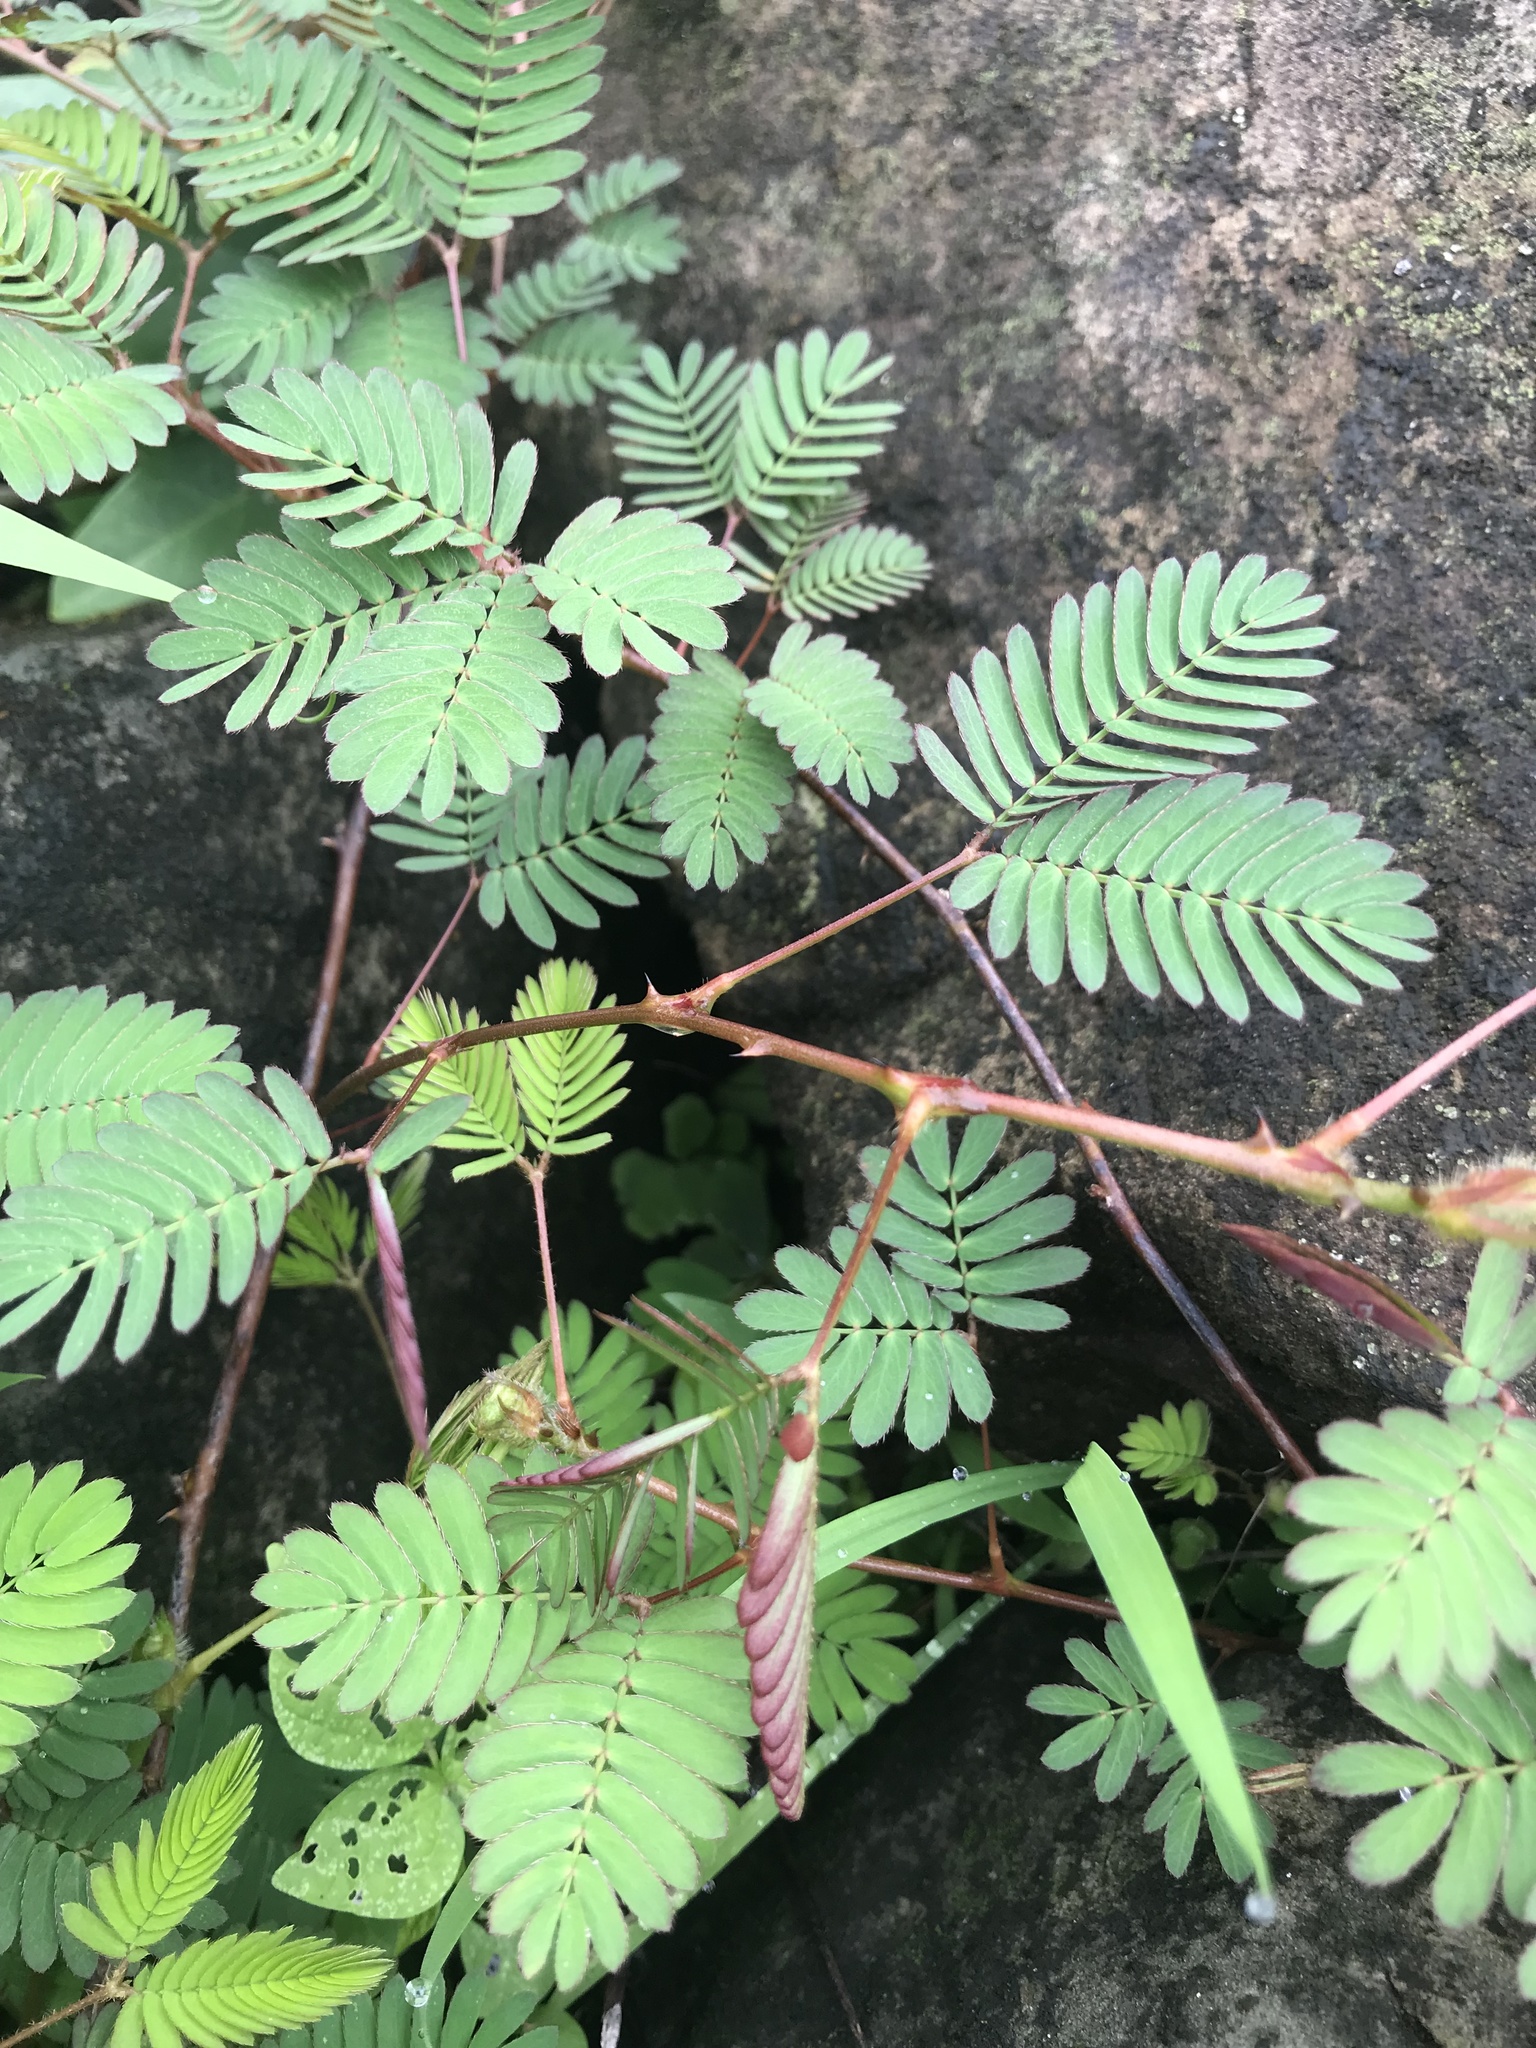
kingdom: Plantae
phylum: Tracheophyta
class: Magnoliopsida
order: Fabales
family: Fabaceae
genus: Mimosa
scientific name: Mimosa pudica
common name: Sensitive plant
